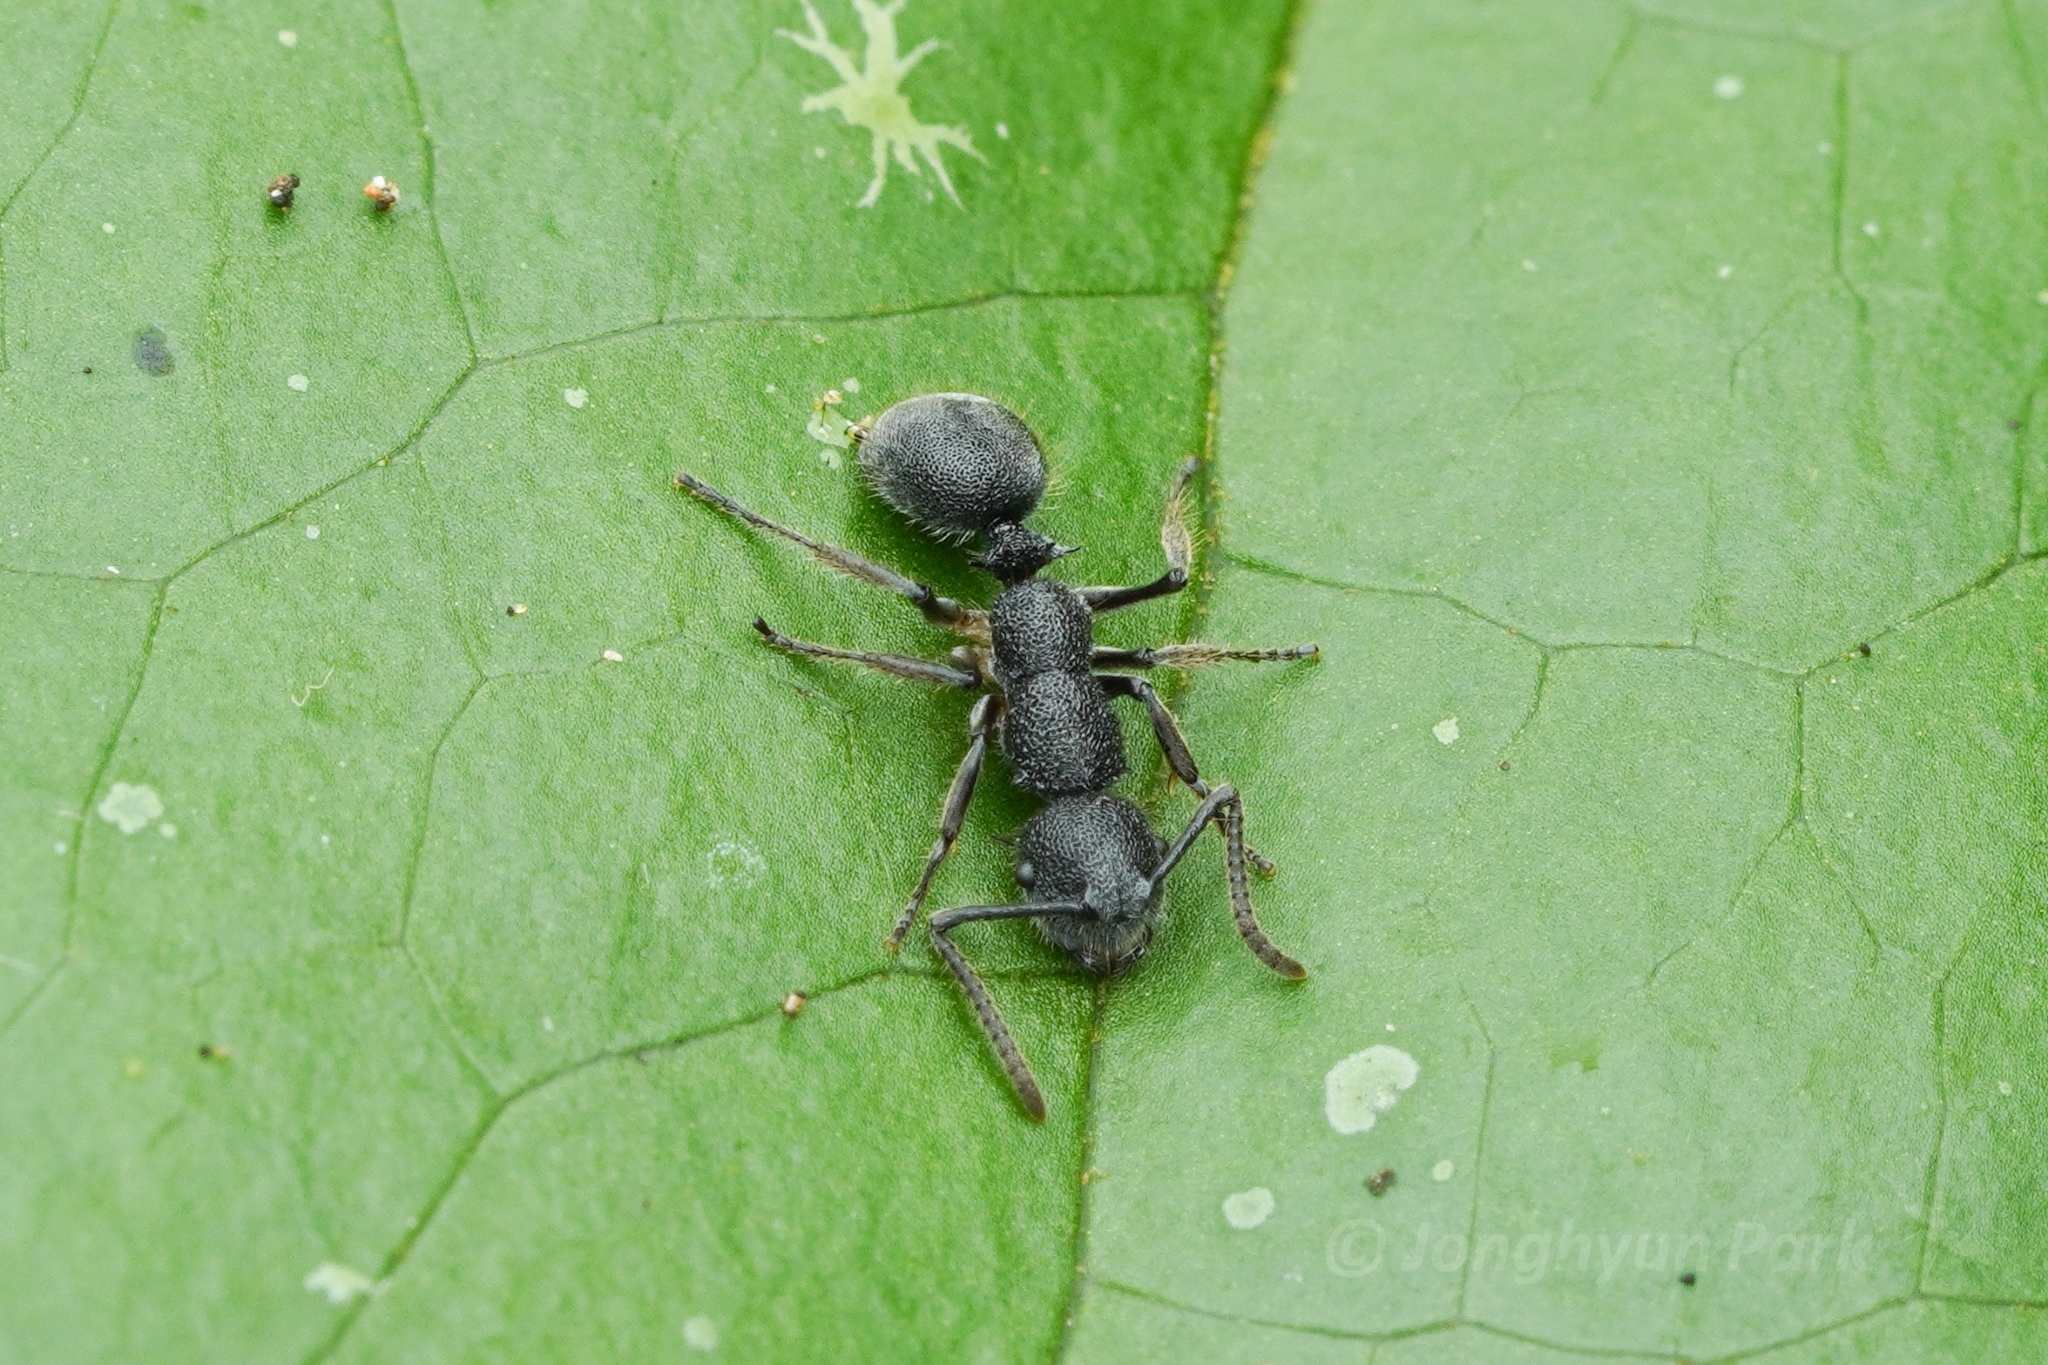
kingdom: Animalia
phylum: Arthropoda
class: Insecta
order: Hymenoptera
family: Formicidae
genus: Echinopla
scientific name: Echinopla angustata
